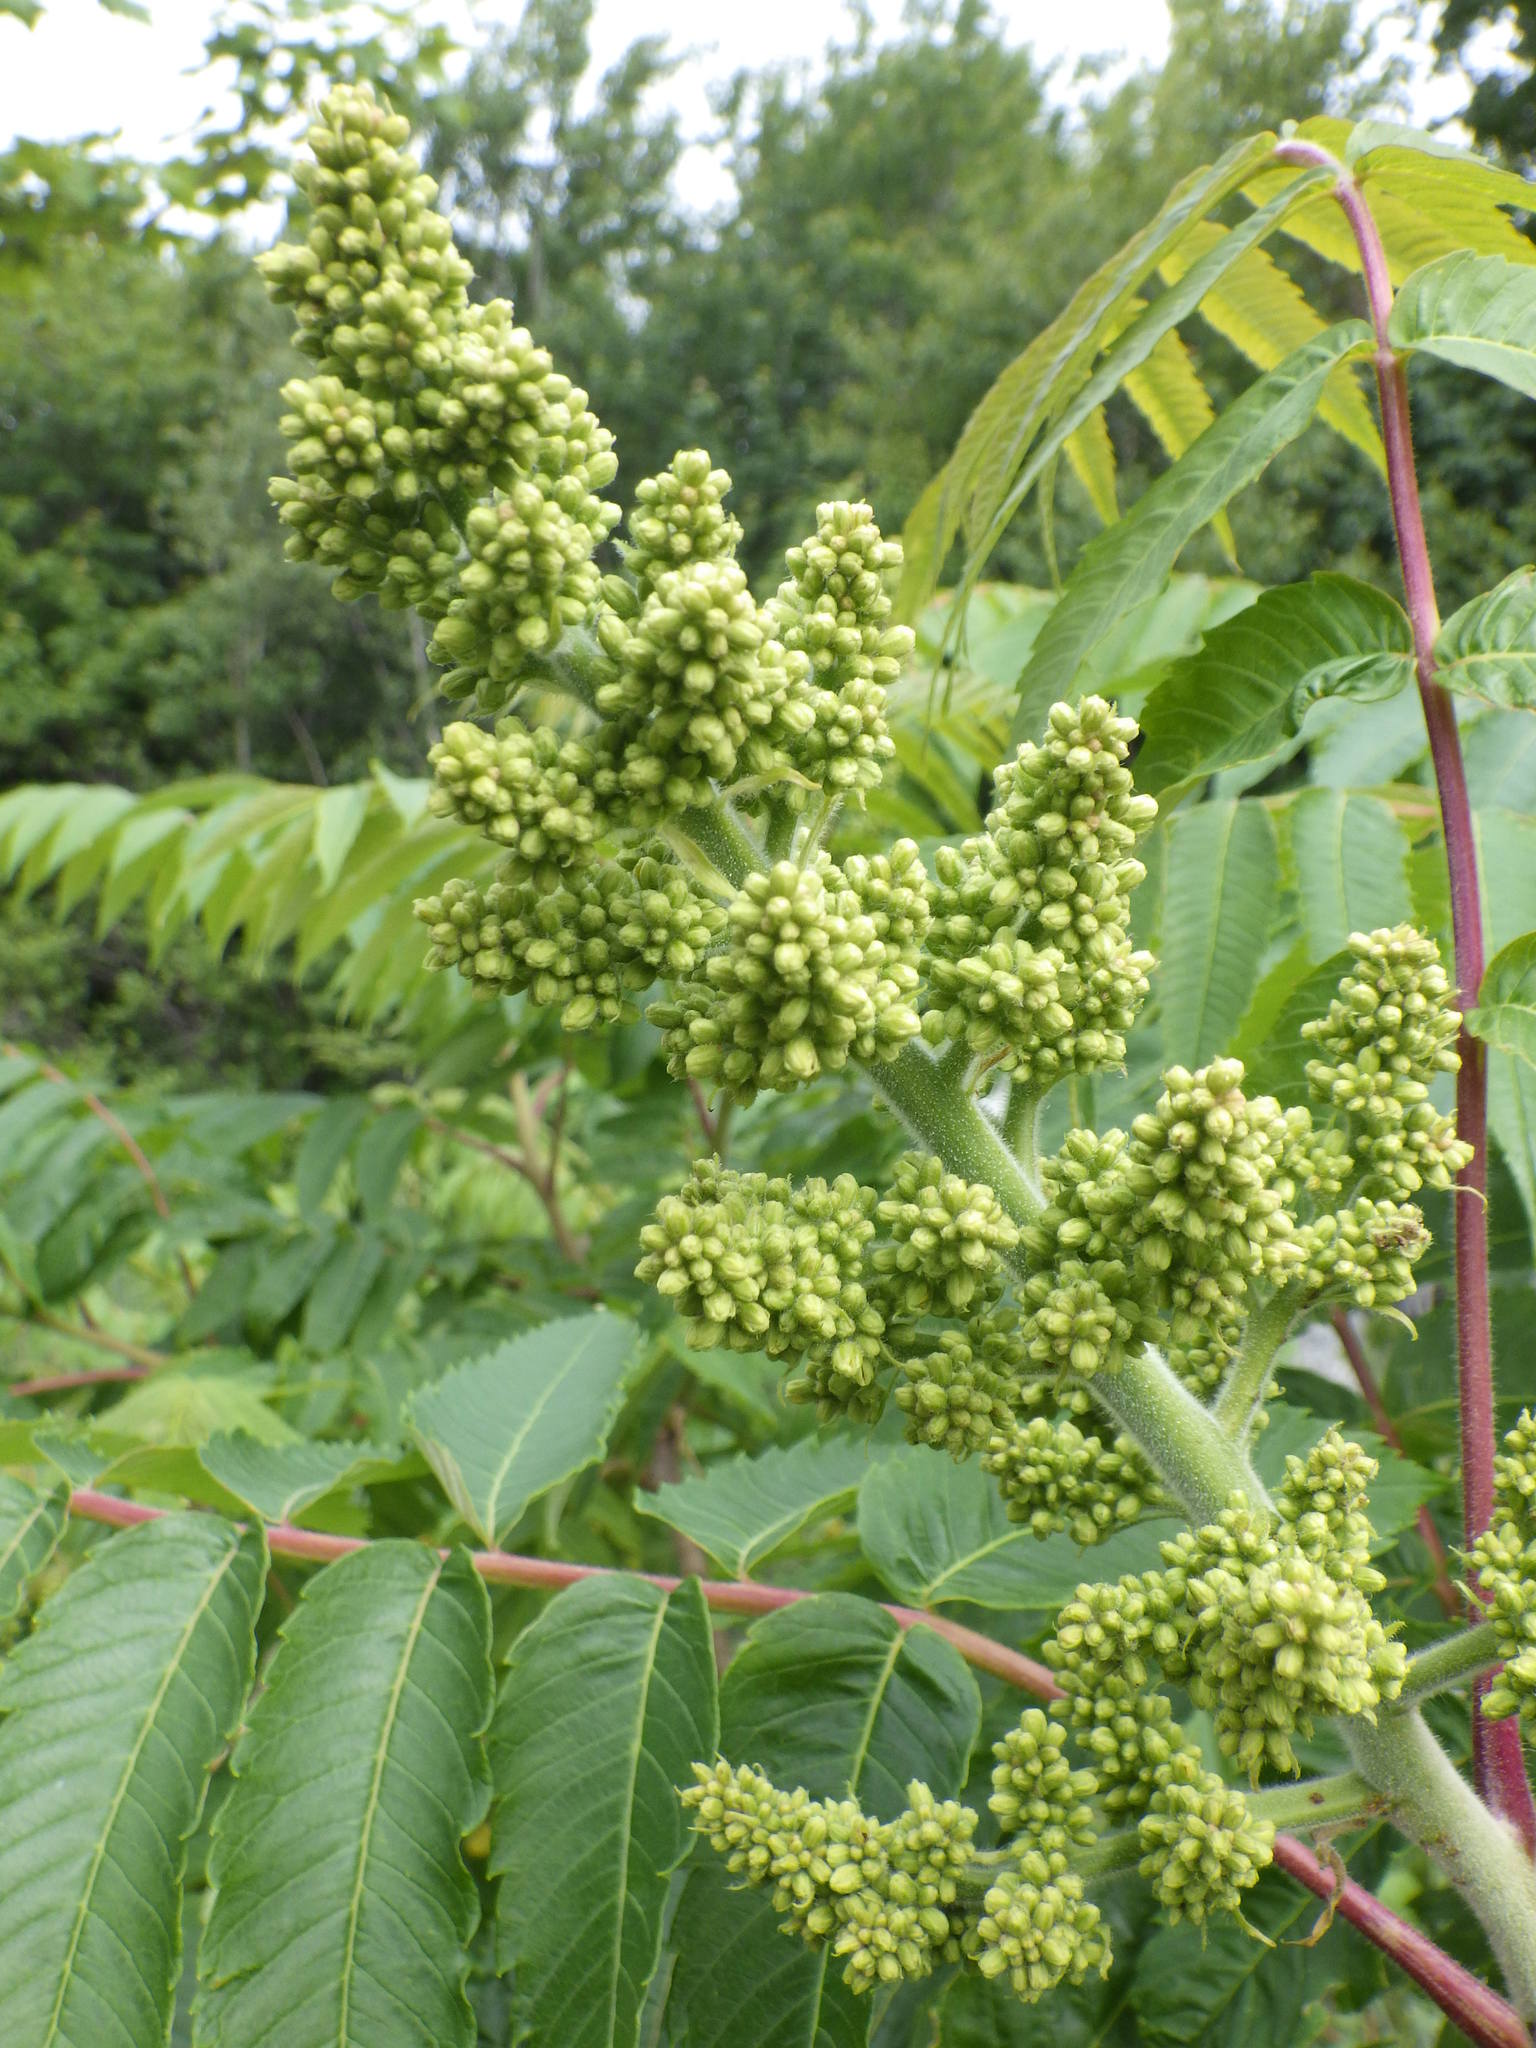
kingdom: Plantae
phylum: Tracheophyta
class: Magnoliopsida
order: Sapindales
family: Anacardiaceae
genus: Rhus
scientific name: Rhus typhina
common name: Staghorn sumac
